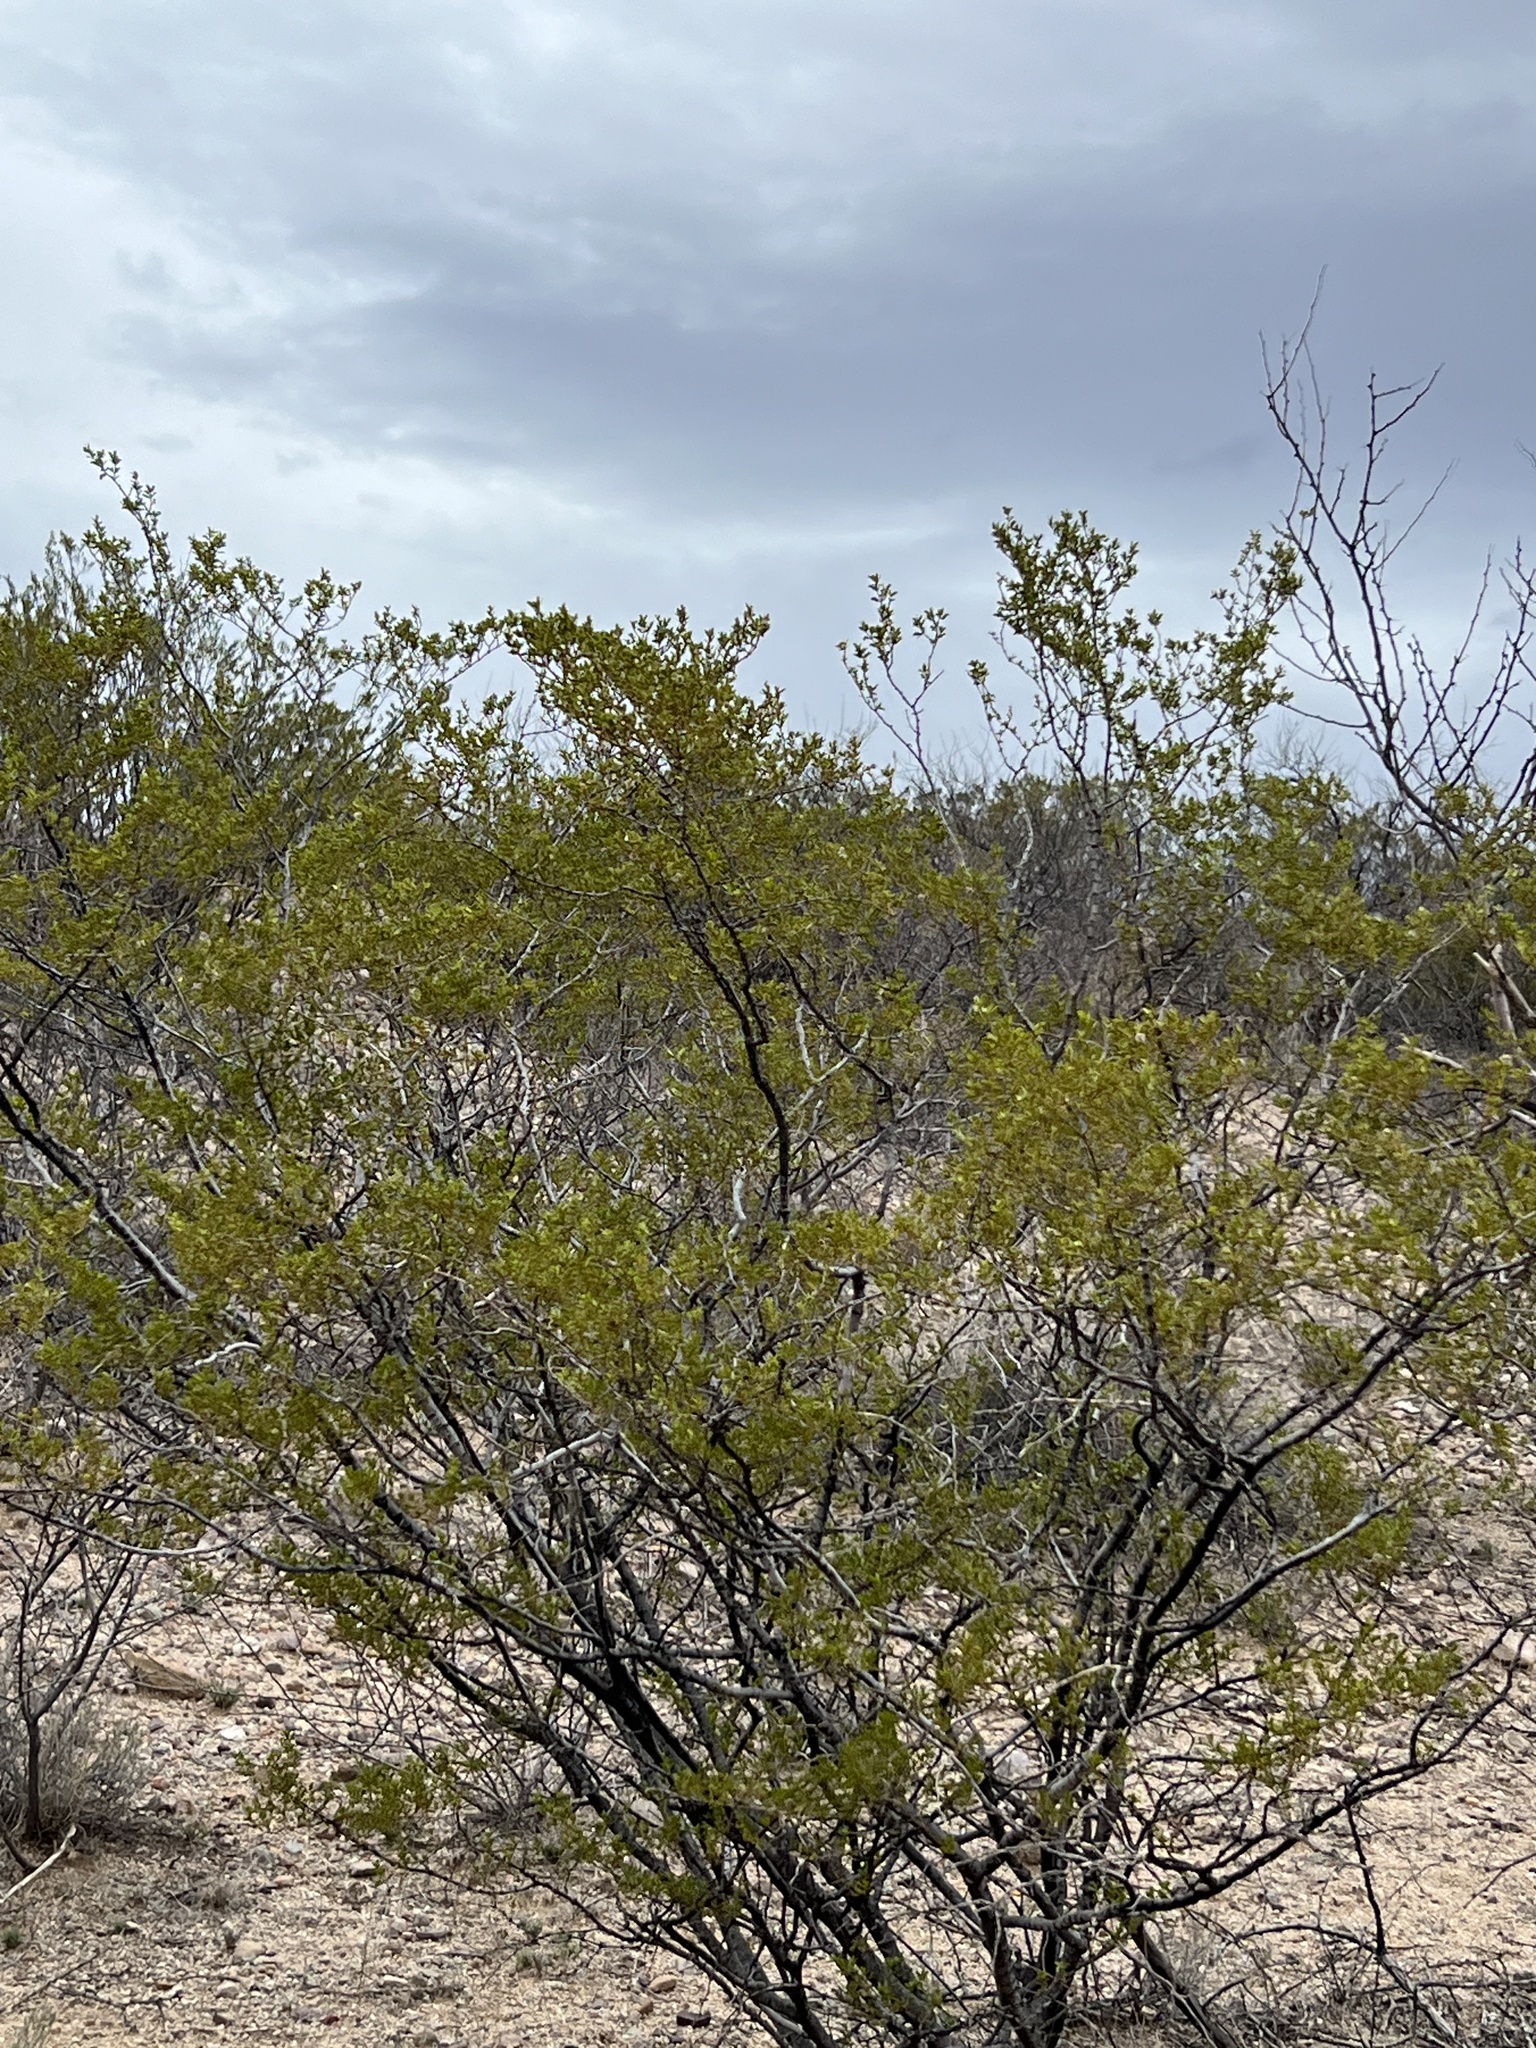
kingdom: Plantae
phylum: Tracheophyta
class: Magnoliopsida
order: Zygophyllales
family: Zygophyllaceae
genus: Larrea
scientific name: Larrea tridentata
